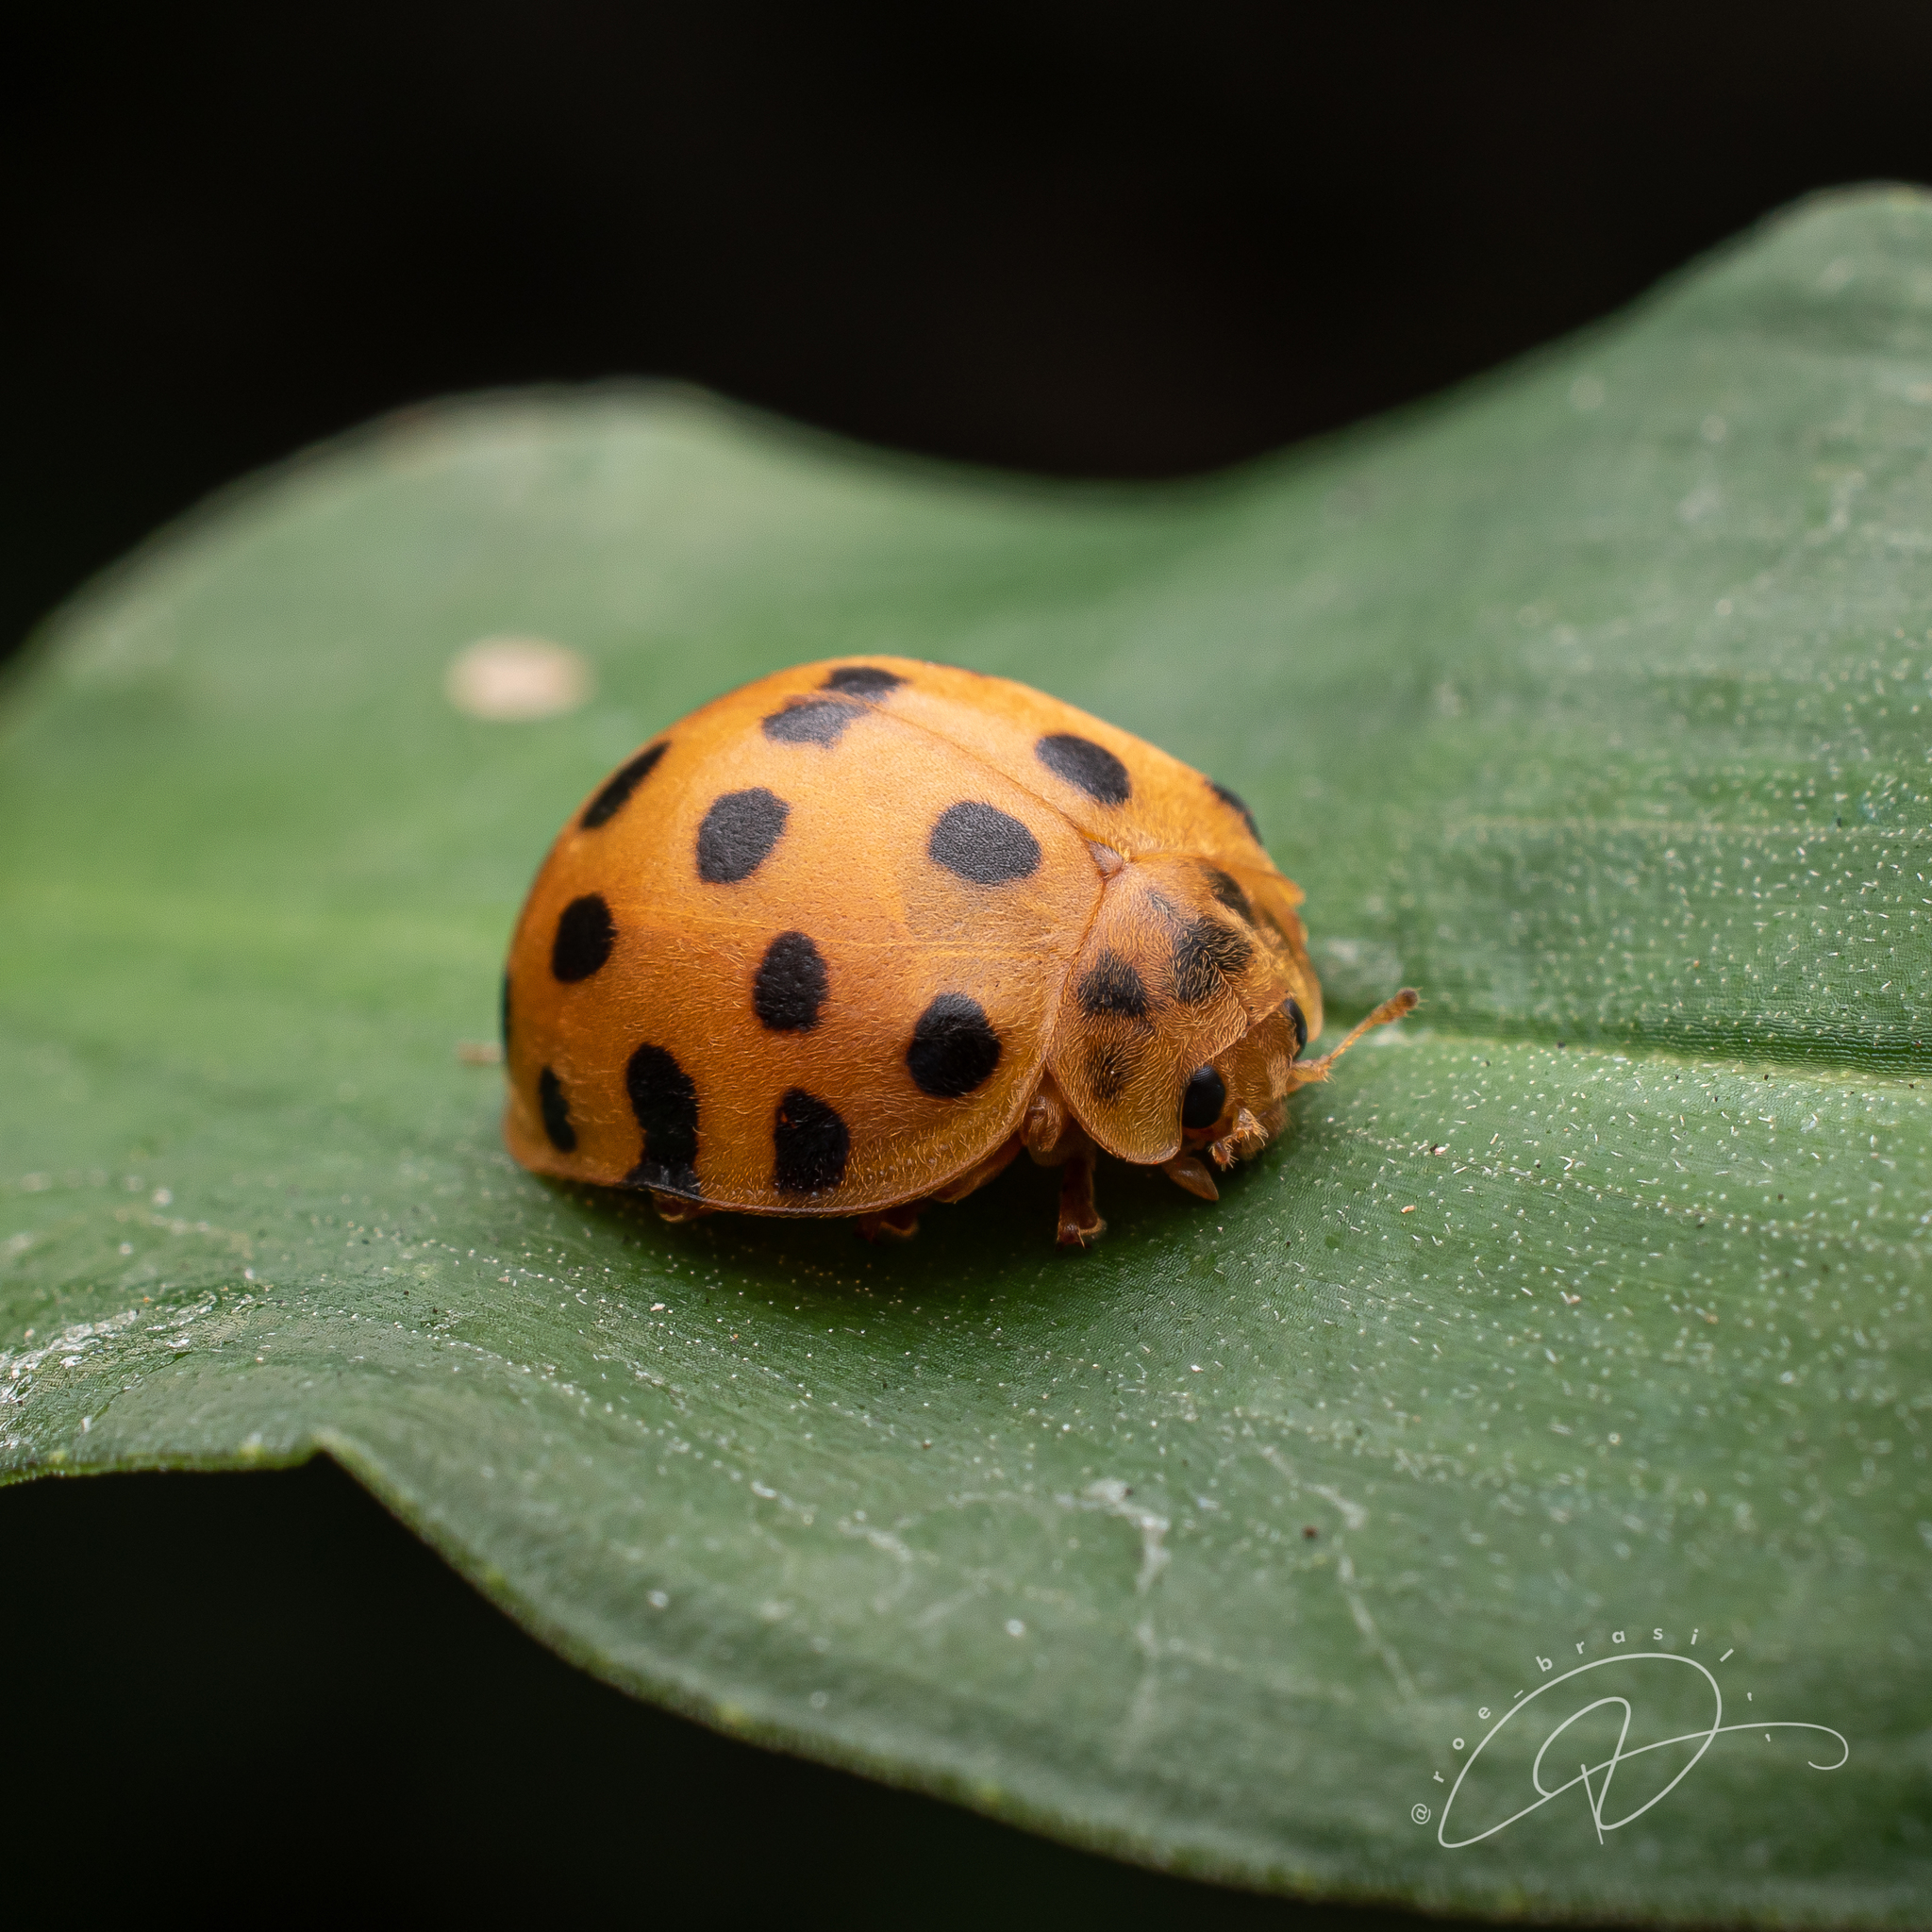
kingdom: Animalia
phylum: Arthropoda
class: Insecta
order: Coleoptera
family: Coccinellidae
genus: Henosepilachna
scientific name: Henosepilachna vigintioctopunctata
